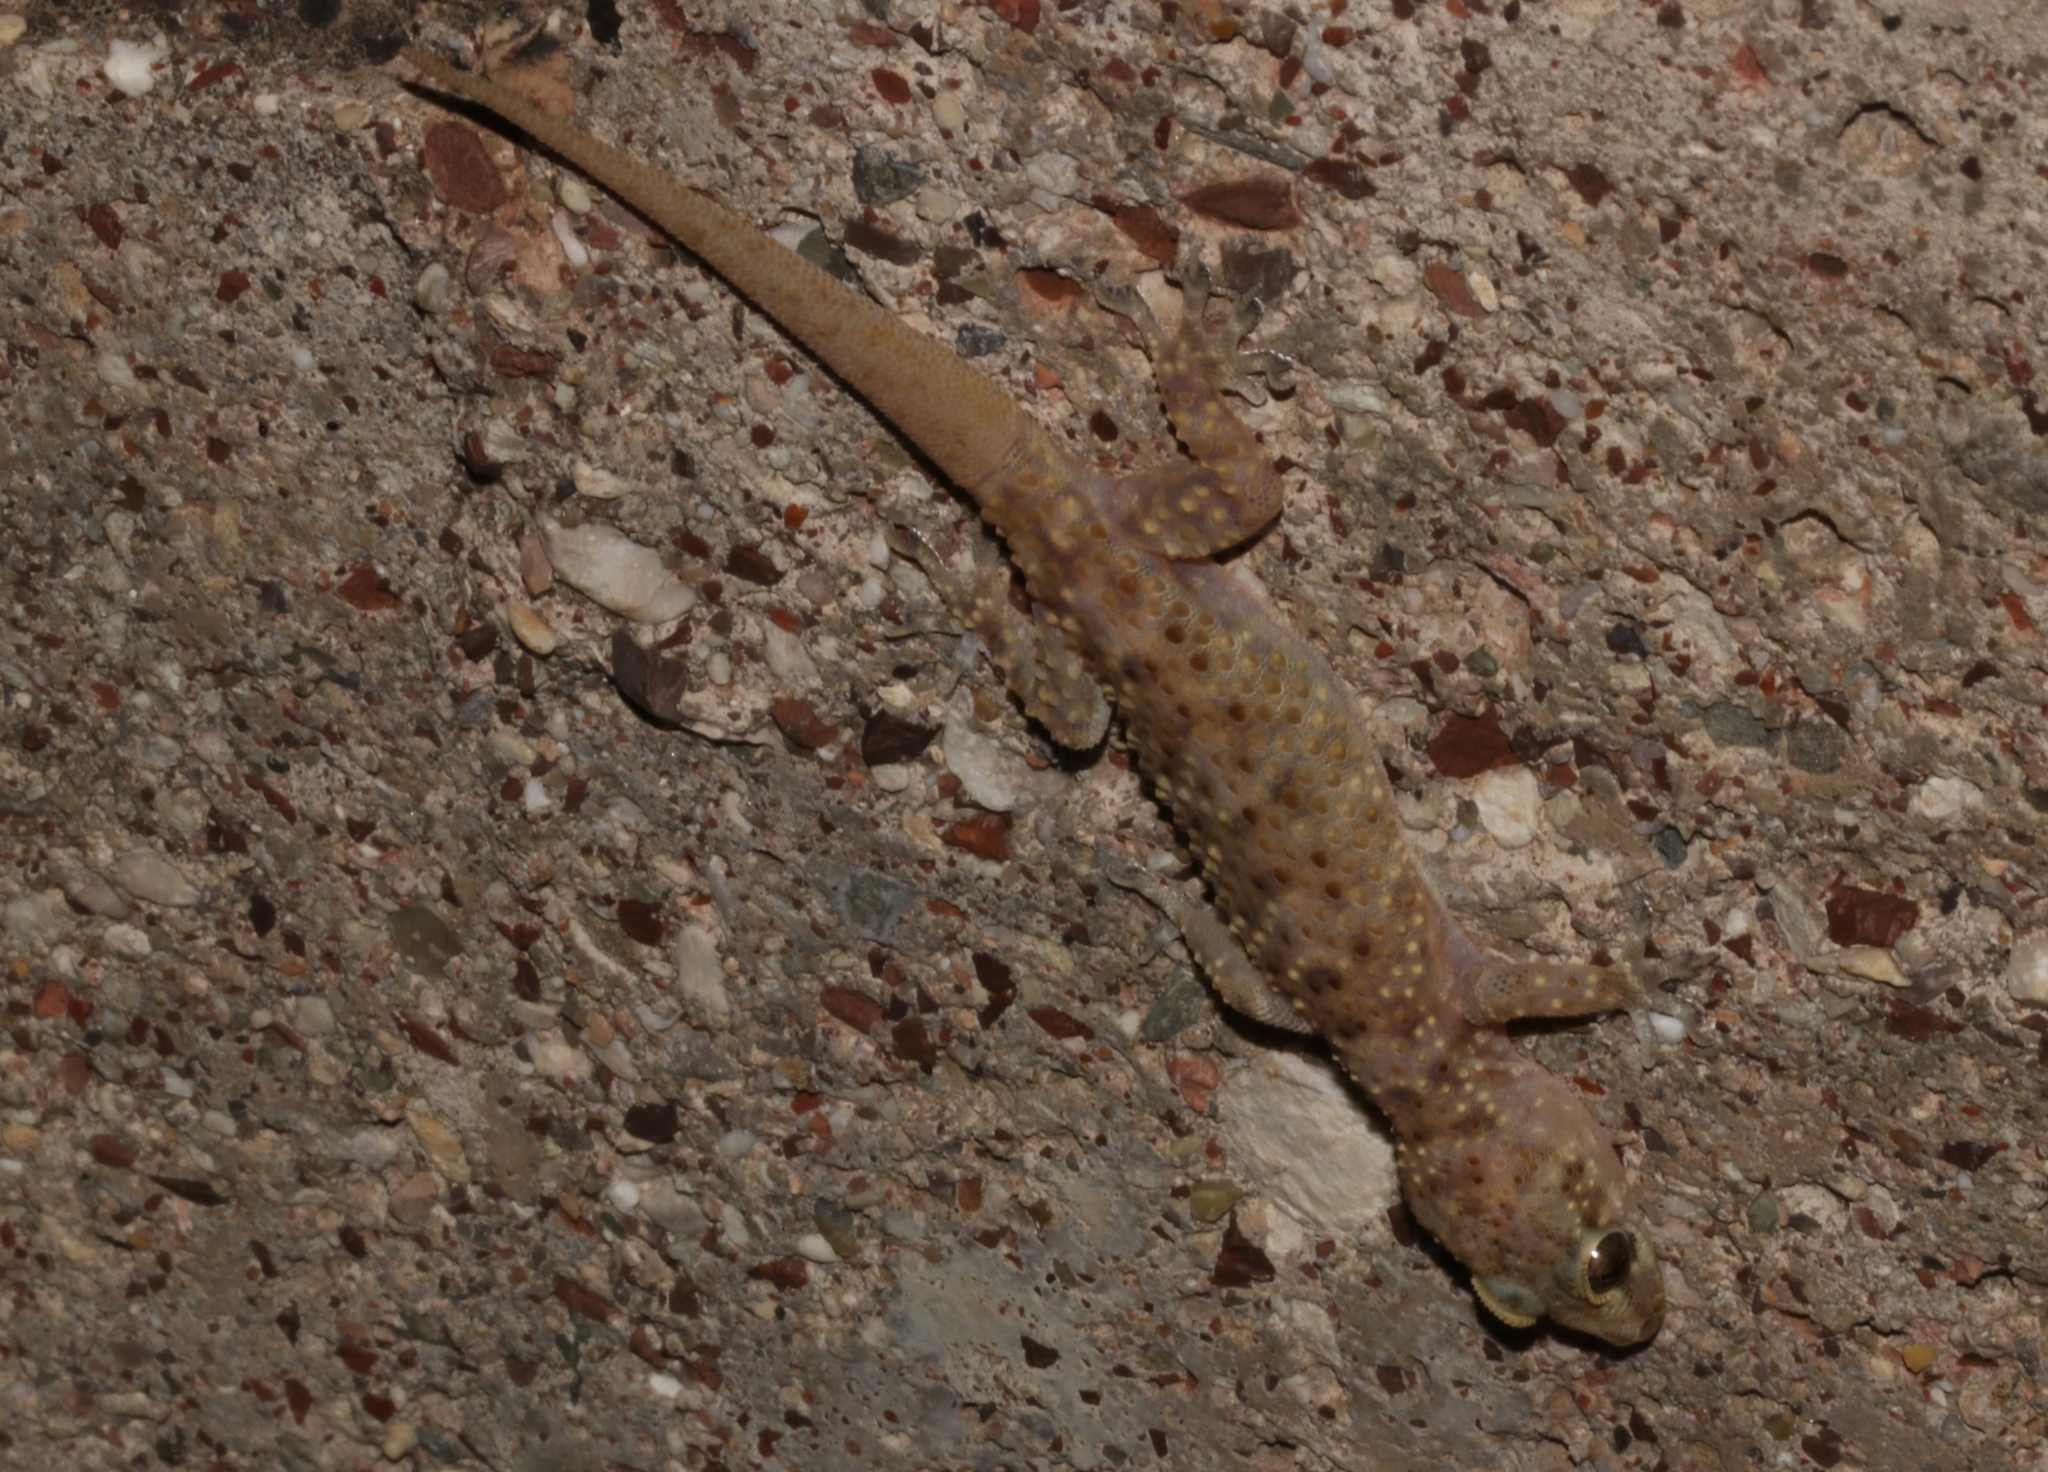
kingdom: Animalia
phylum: Chordata
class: Squamata
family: Gekkonidae
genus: Hemidactylus
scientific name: Hemidactylus turcicus
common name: Turkish gecko
